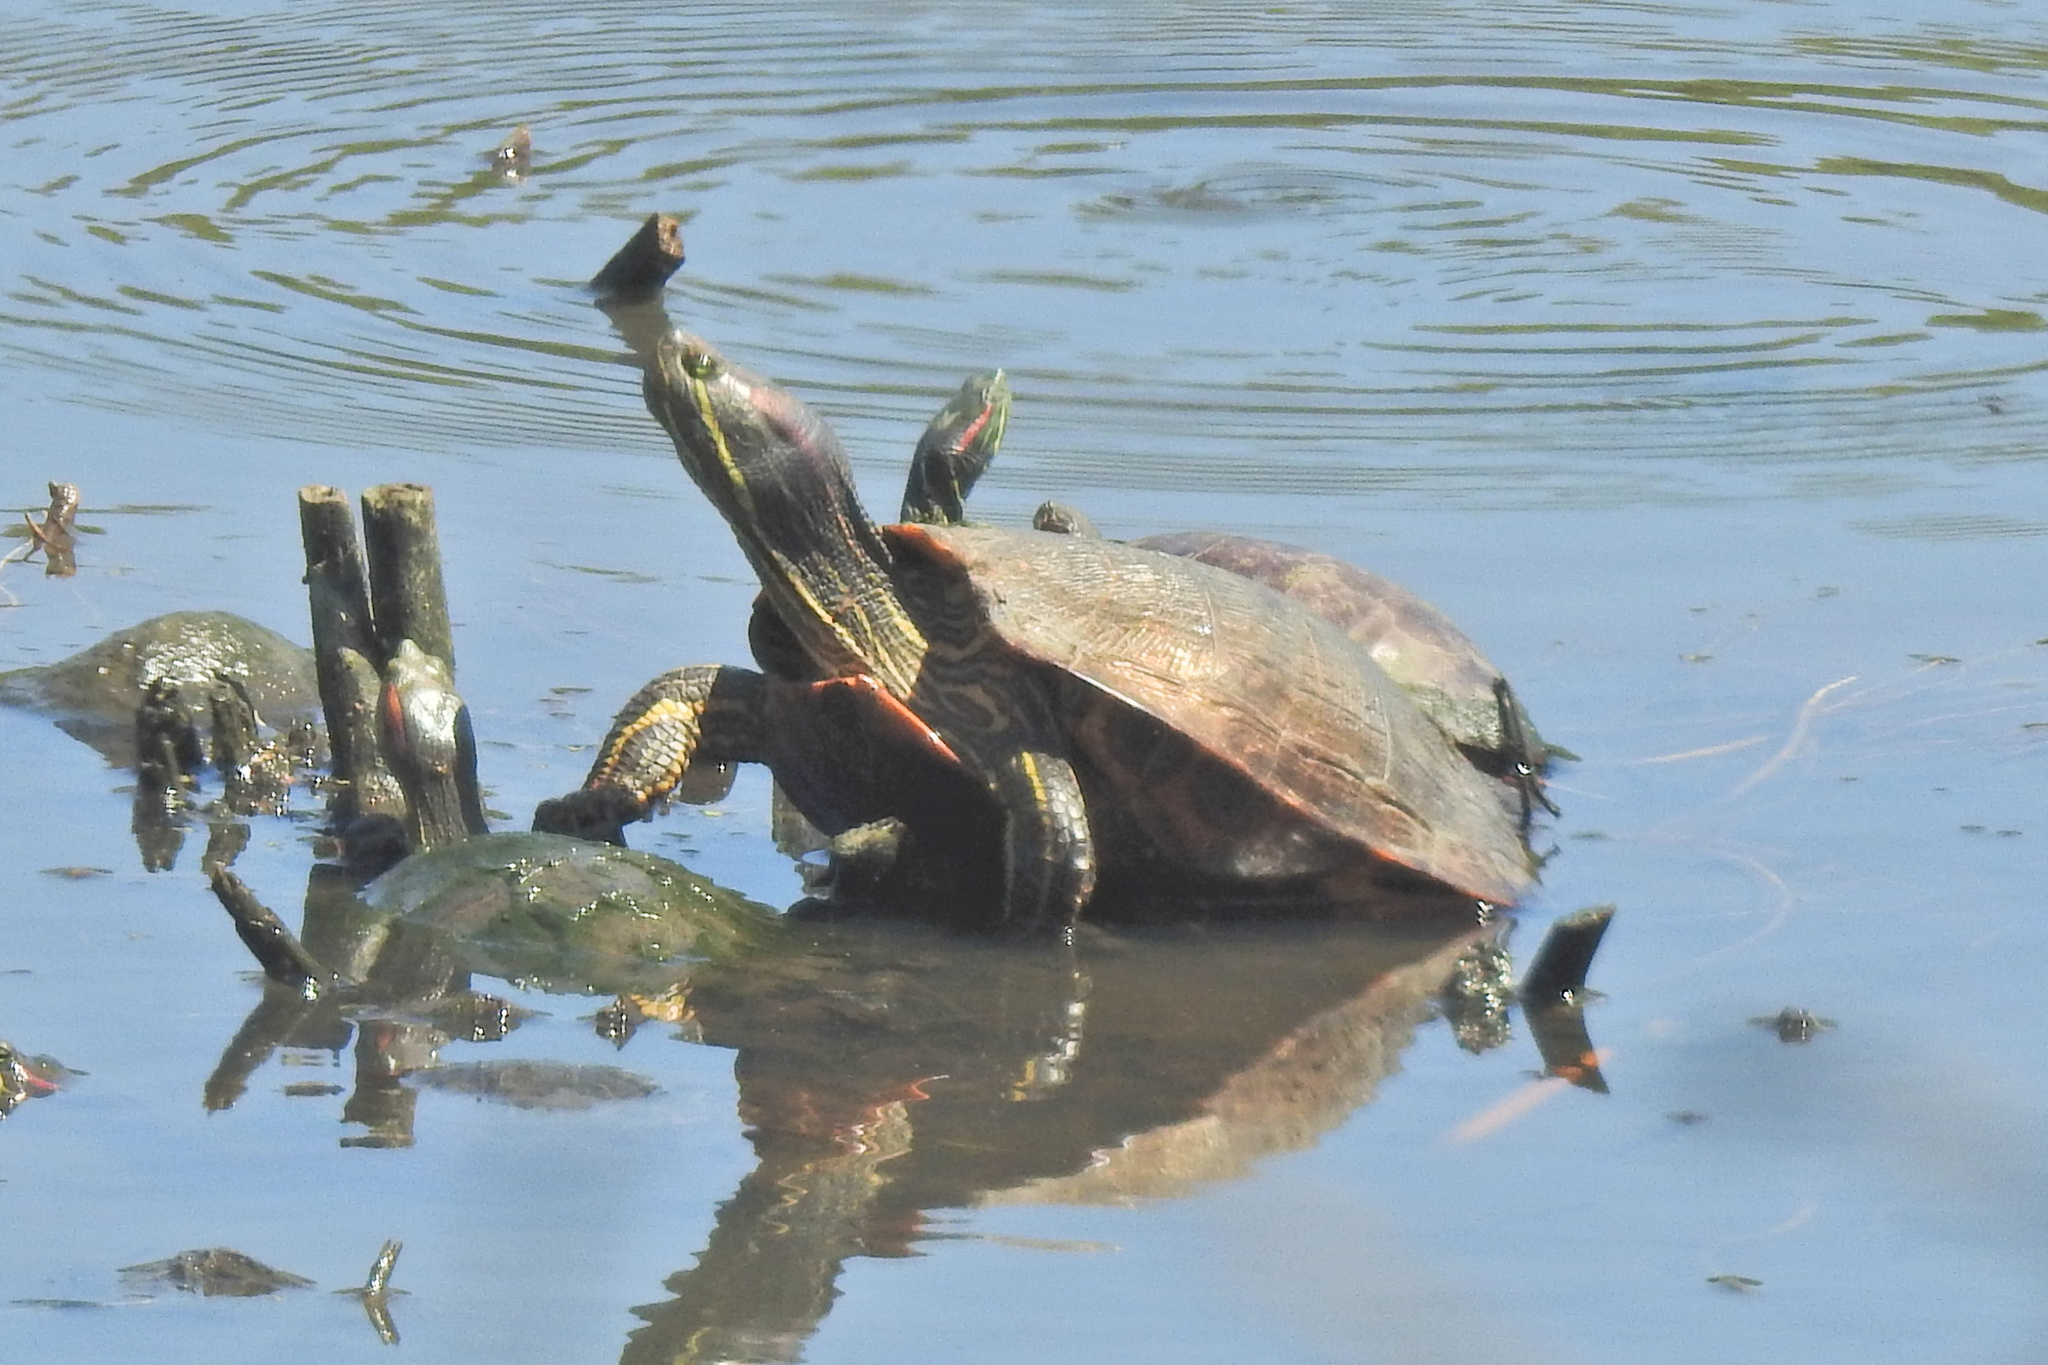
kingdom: Animalia
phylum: Chordata
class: Testudines
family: Emydidae
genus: Trachemys
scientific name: Trachemys scripta
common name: Slider
